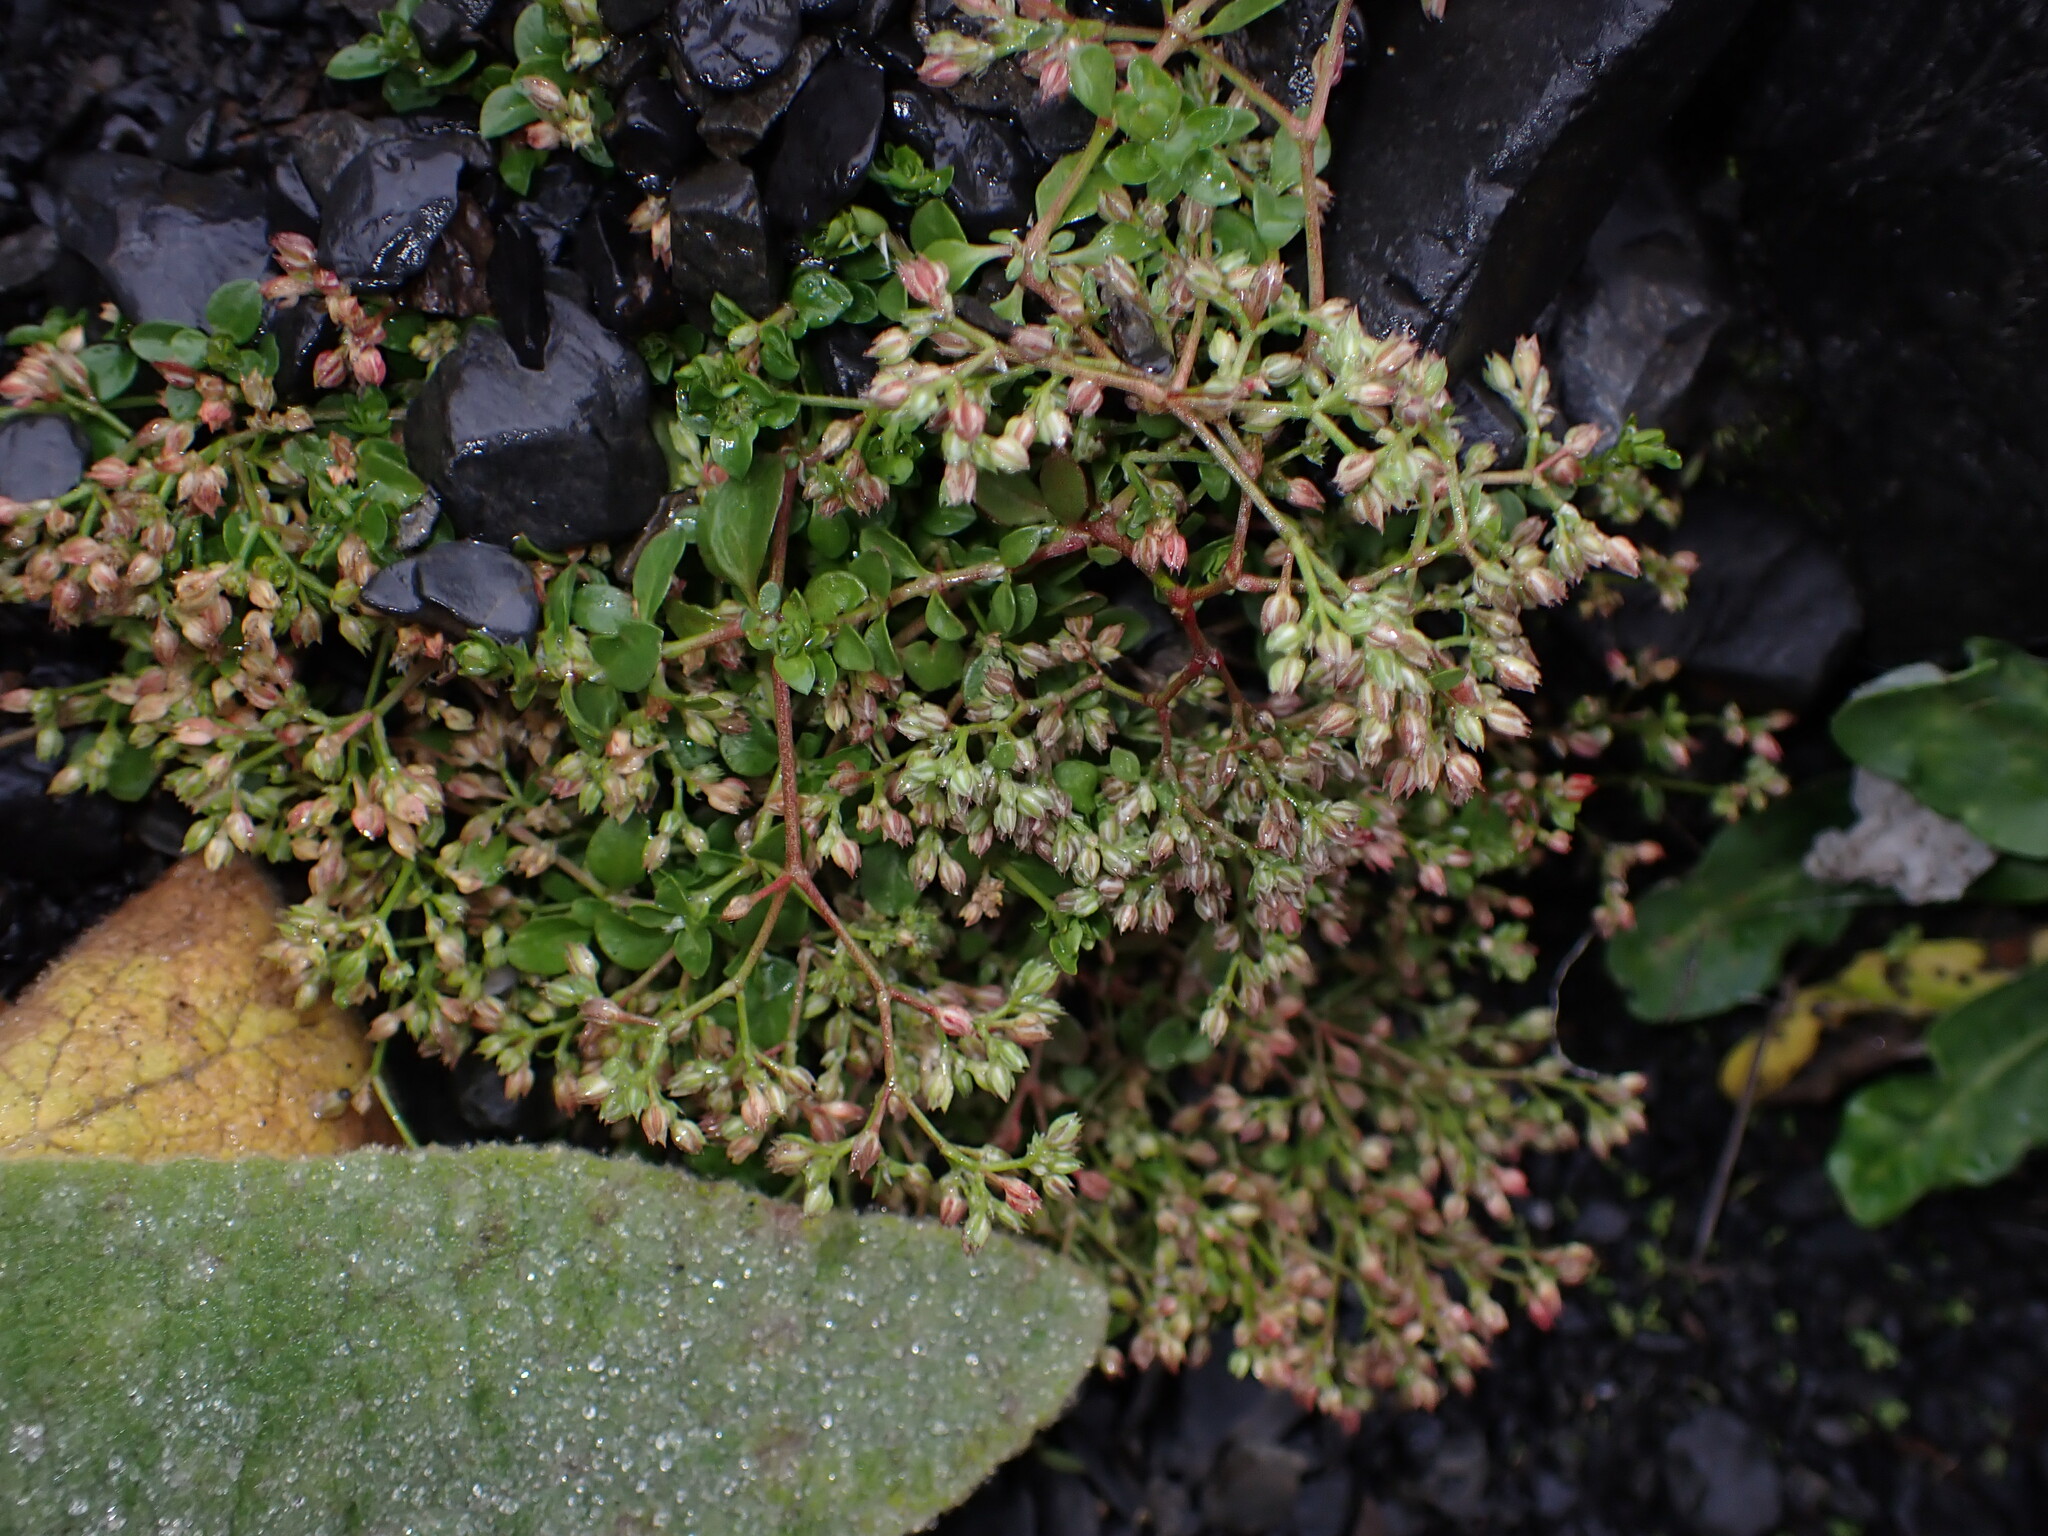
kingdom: Plantae
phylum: Tracheophyta
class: Magnoliopsida
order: Caryophyllales
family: Caryophyllaceae
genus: Polycarpon
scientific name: Polycarpon tetraphyllum
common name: Four-leaved all-seed
